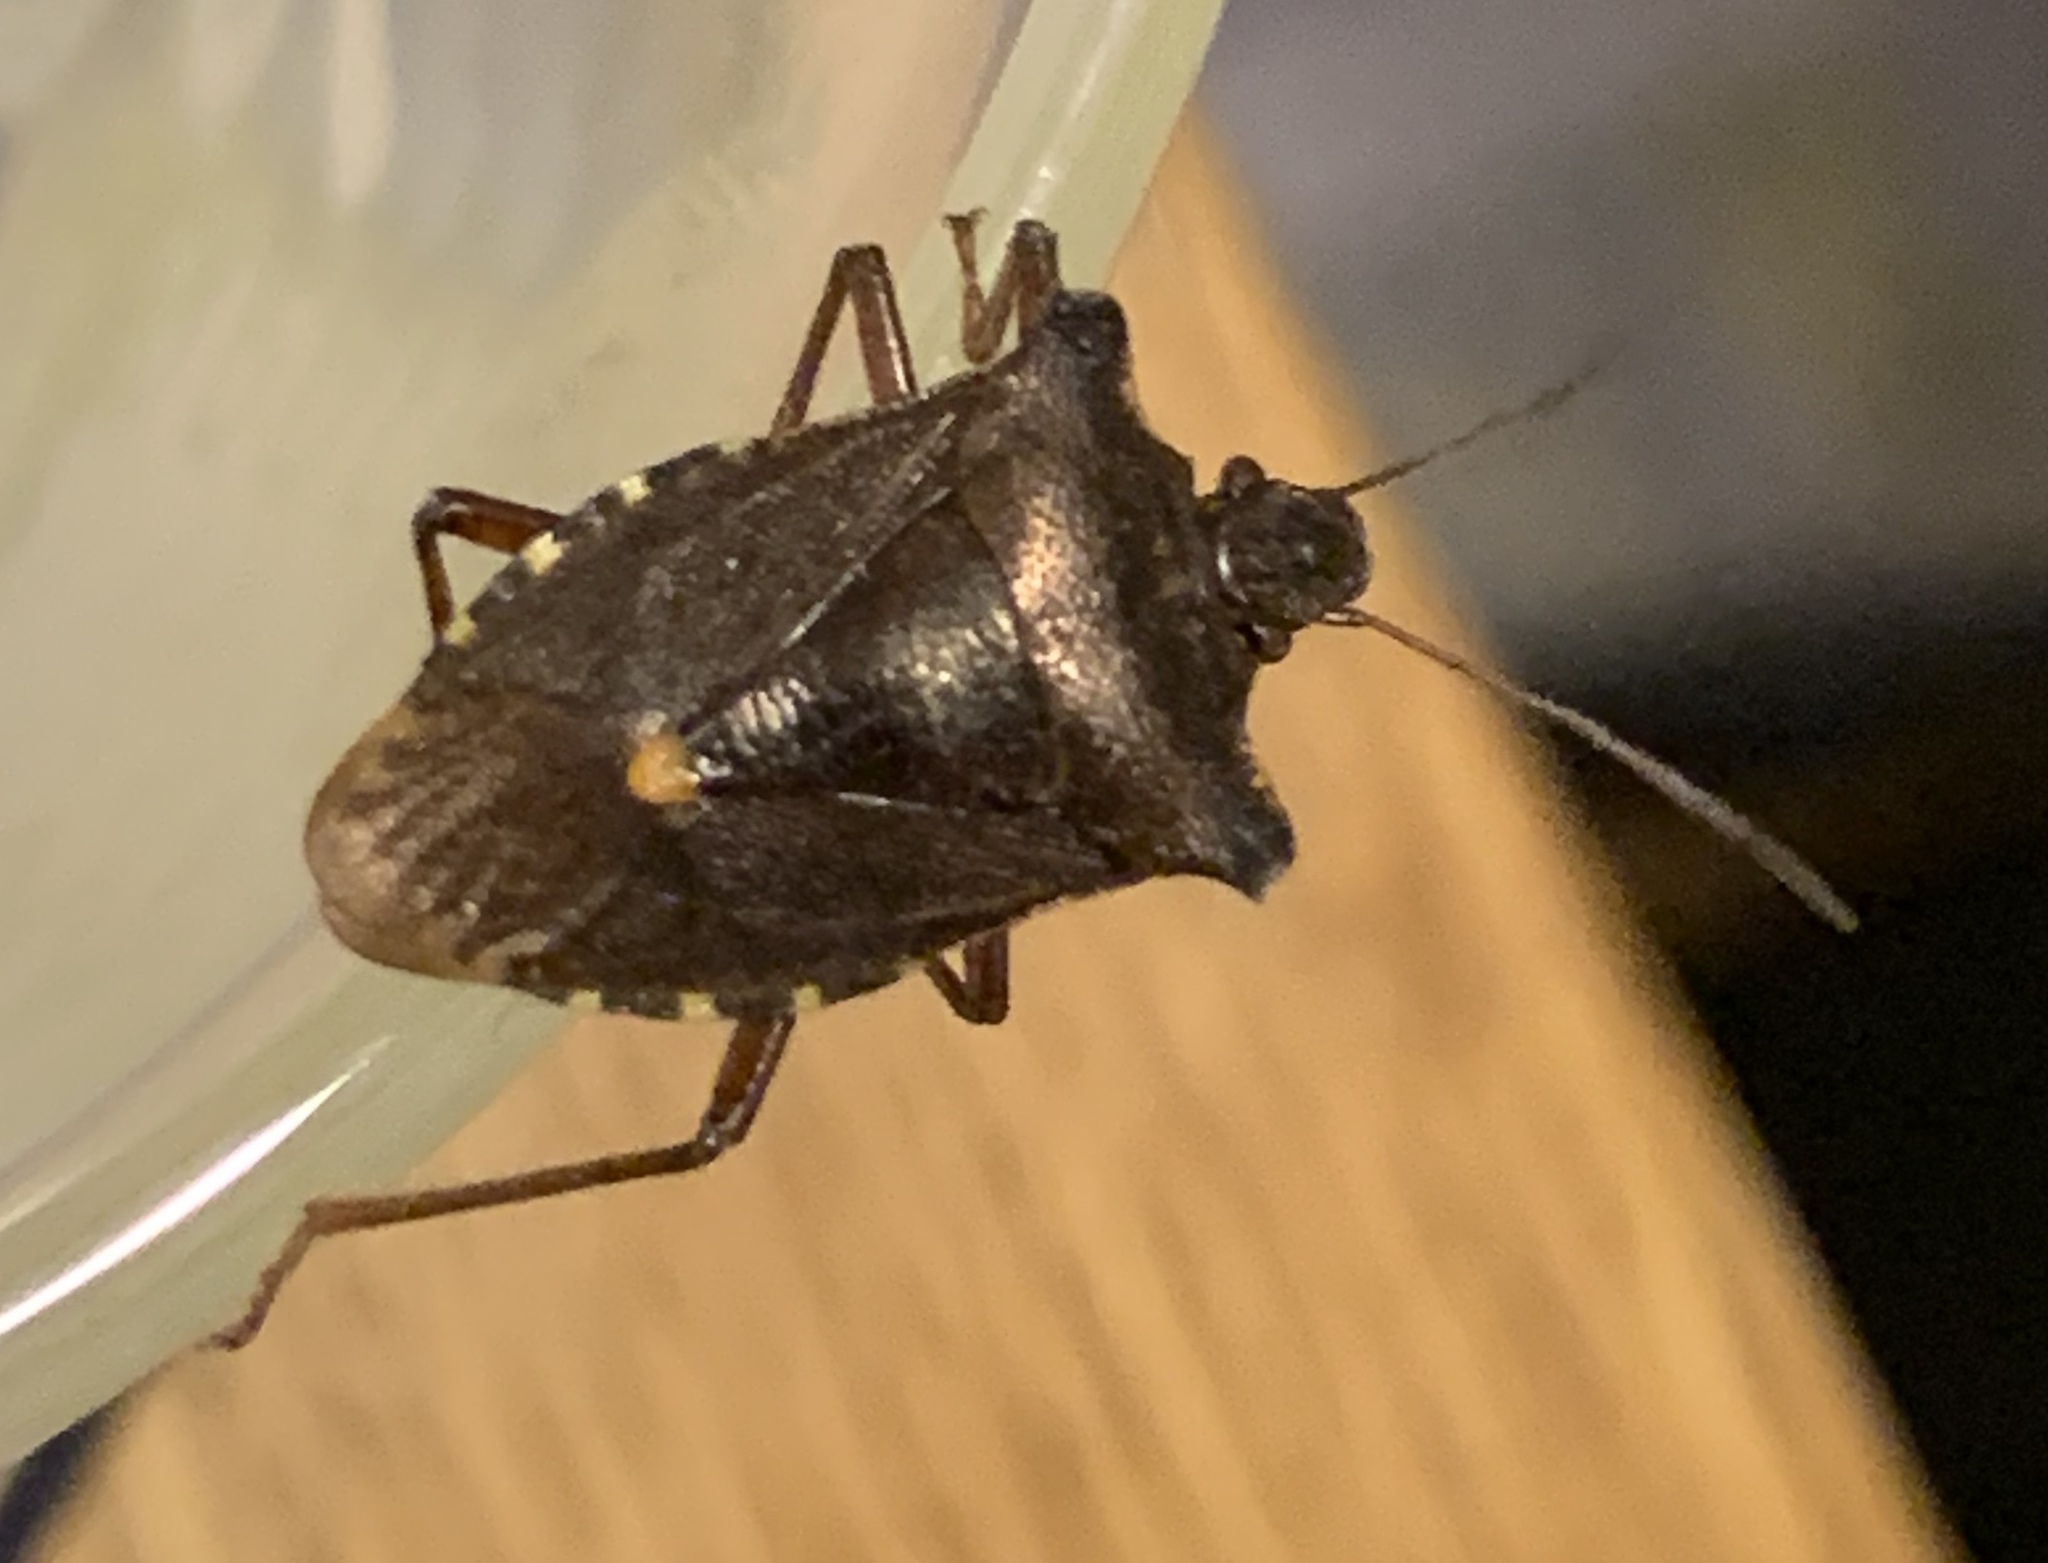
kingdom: Animalia
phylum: Arthropoda
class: Insecta
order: Hemiptera
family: Pentatomidae
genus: Pentatoma
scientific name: Pentatoma rufipes
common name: Forest bug
